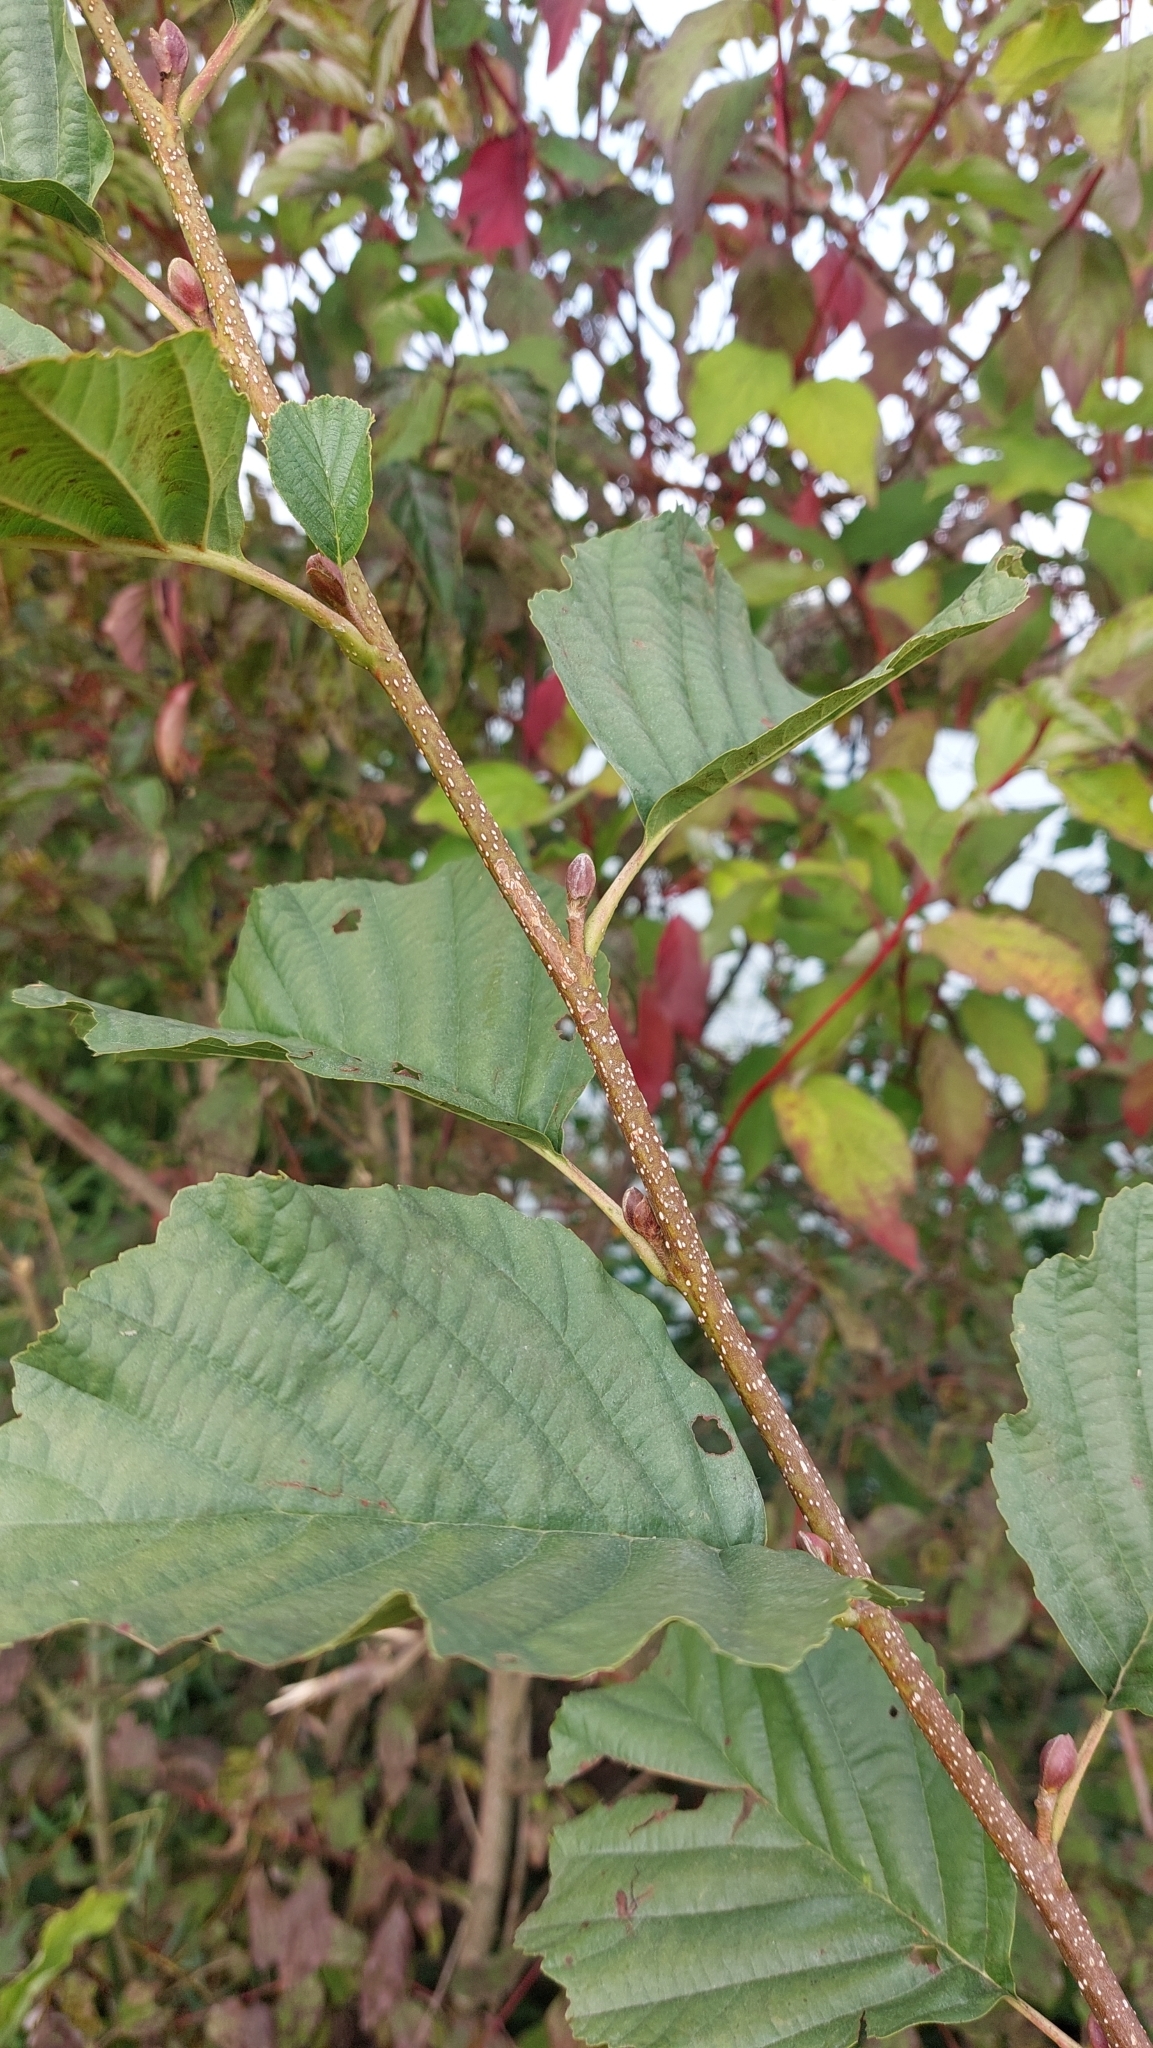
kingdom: Plantae
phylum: Tracheophyta
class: Magnoliopsida
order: Fagales
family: Betulaceae
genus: Alnus
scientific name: Alnus glutinosa
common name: Black alder
